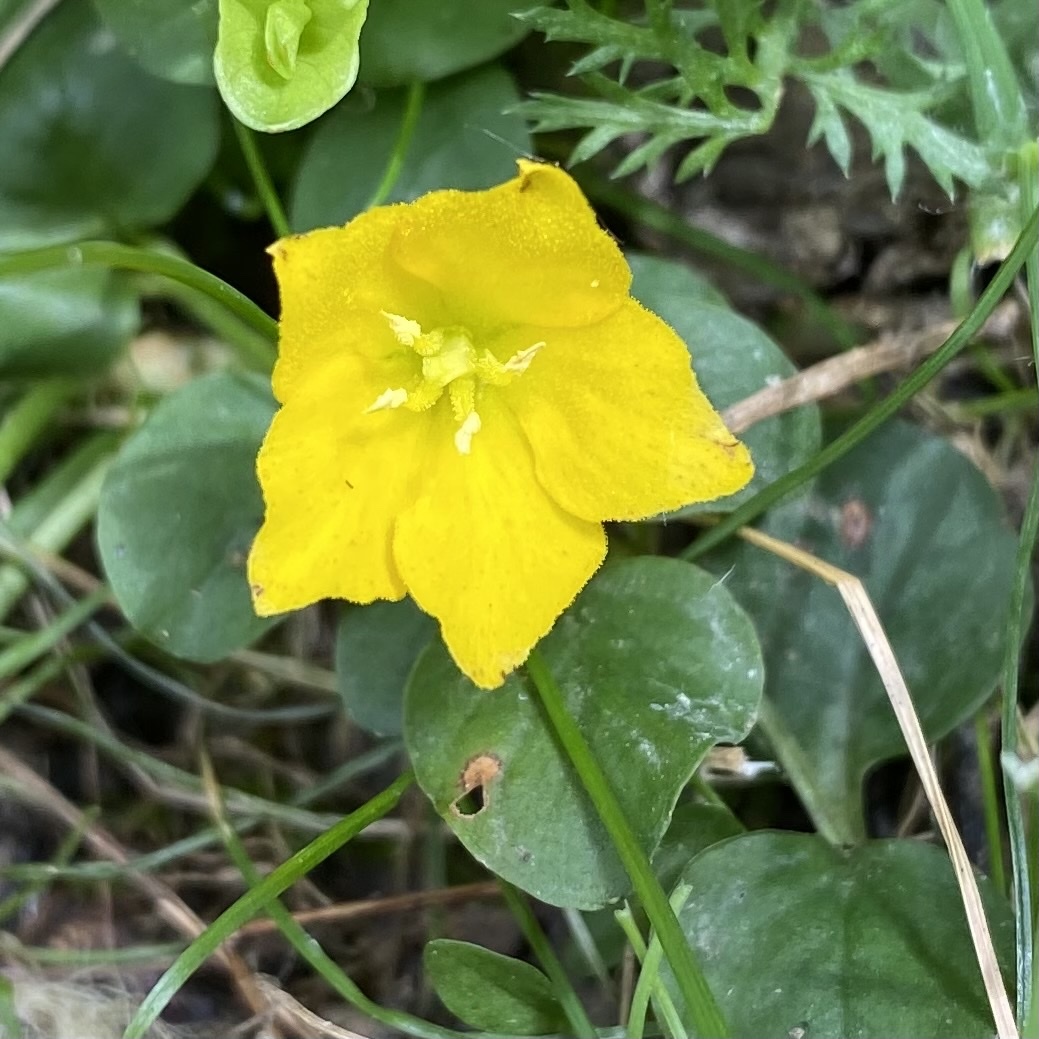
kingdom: Plantae
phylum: Tracheophyta
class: Magnoliopsida
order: Ericales
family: Primulaceae
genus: Lysimachia
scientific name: Lysimachia nummularia
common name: Moneywort
